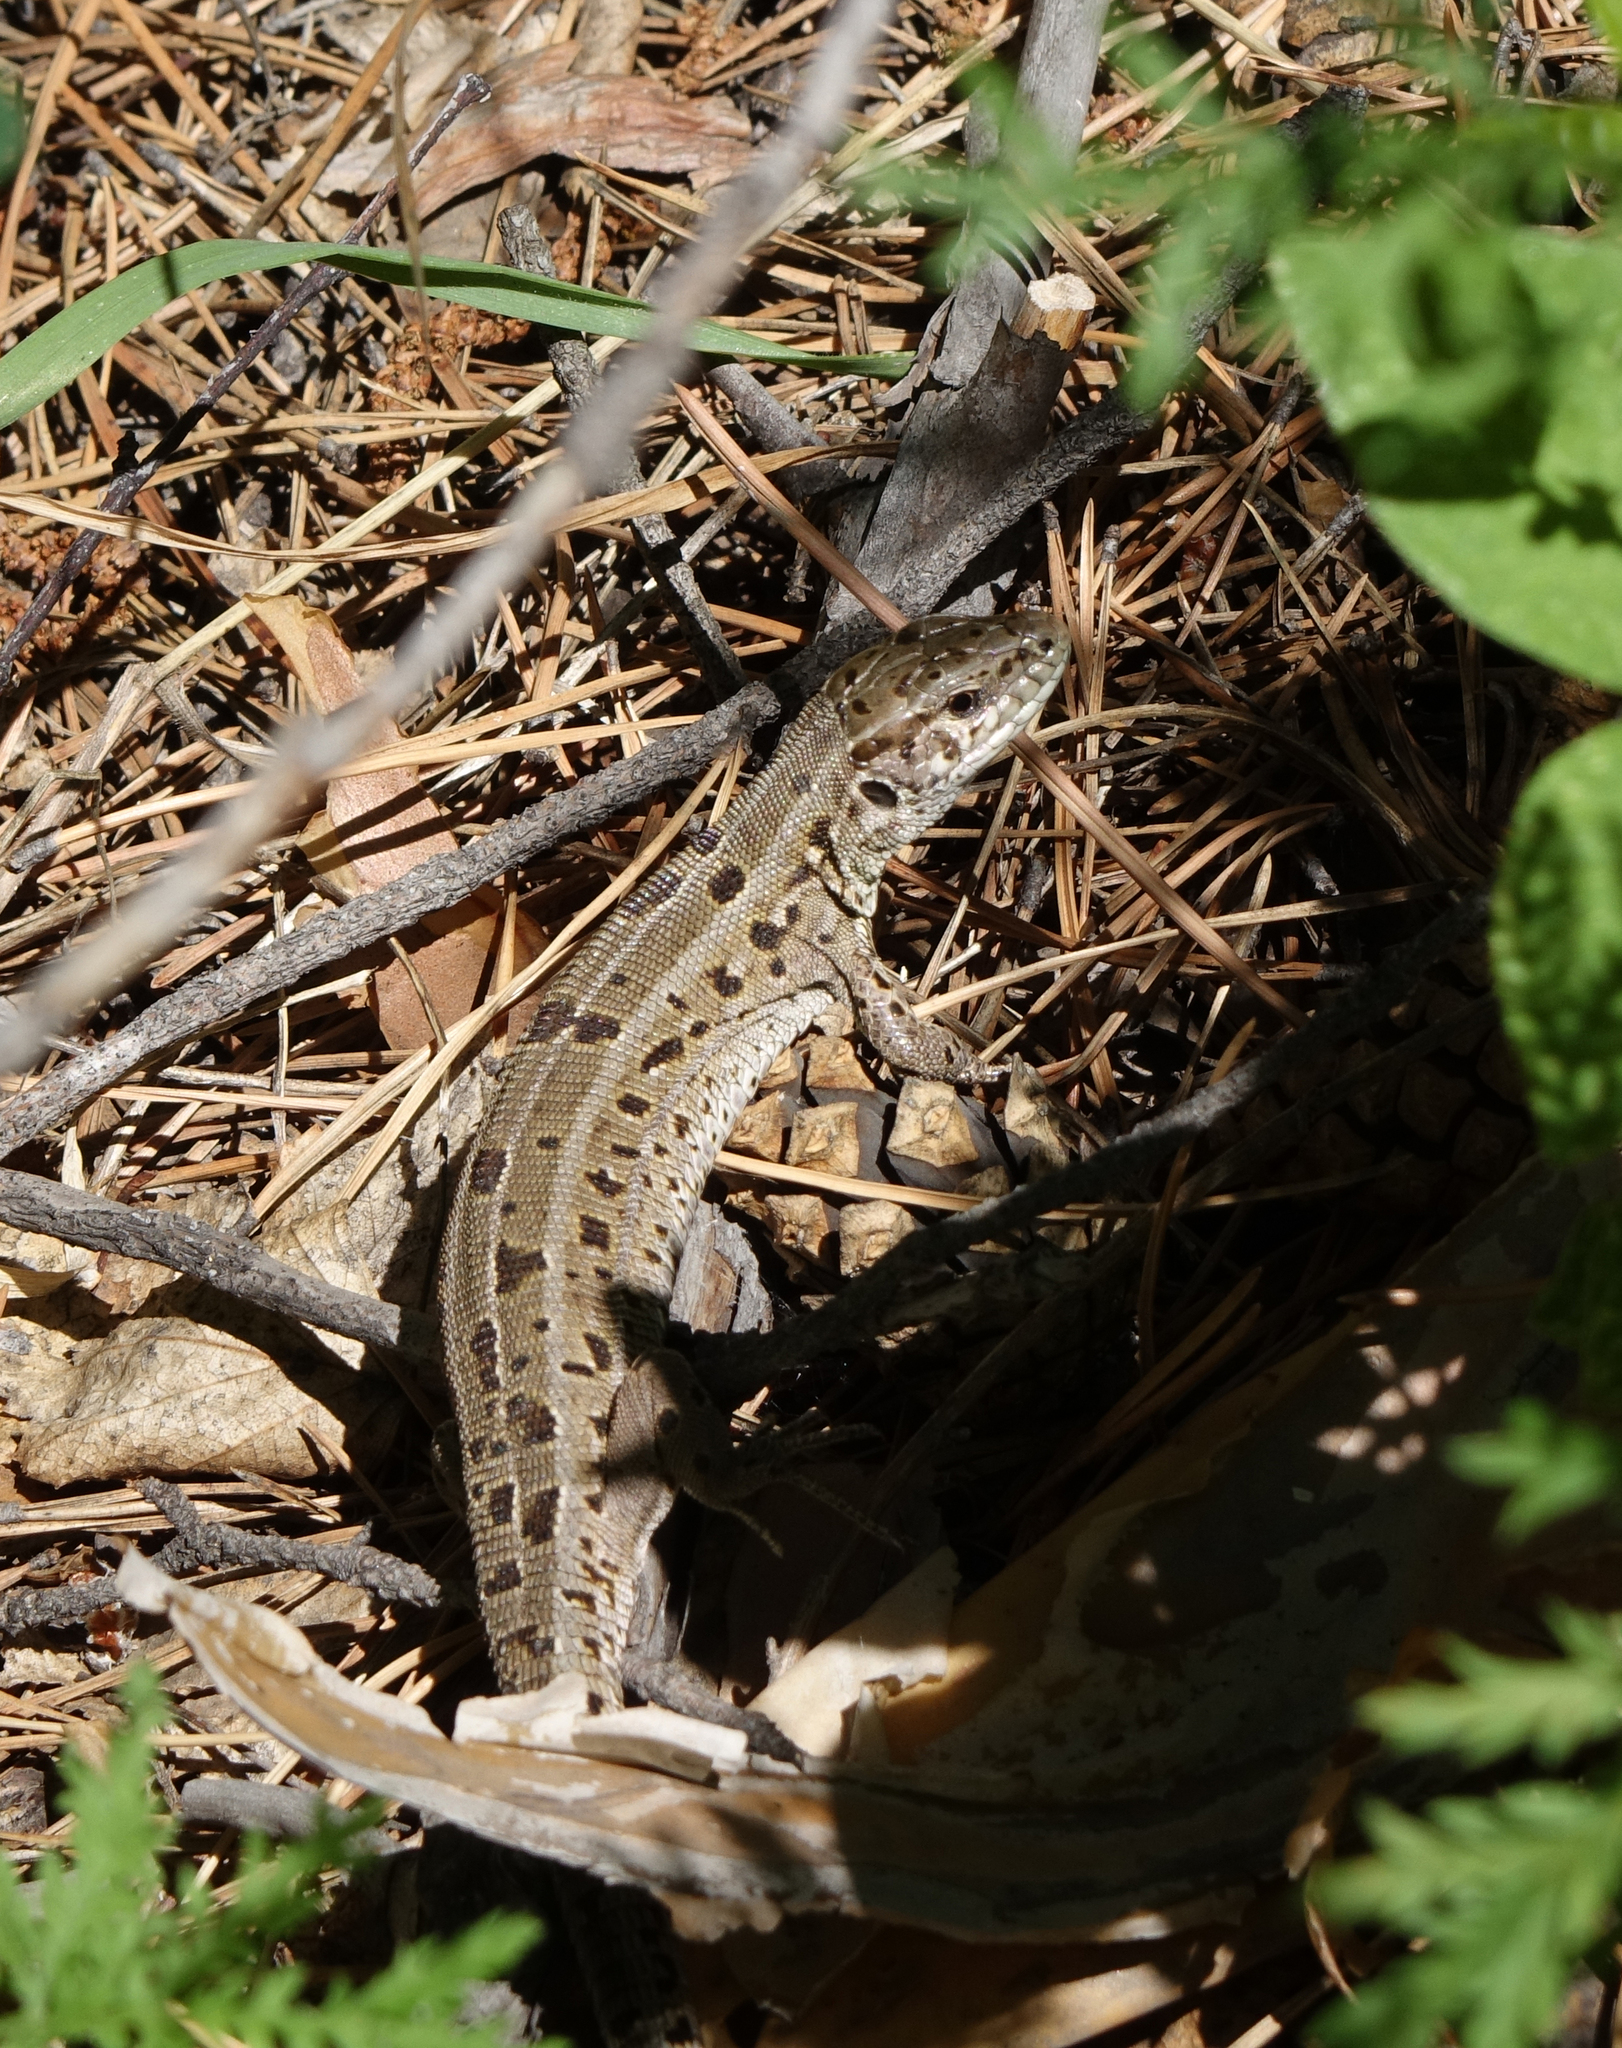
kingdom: Animalia
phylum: Chordata
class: Squamata
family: Lacertidae
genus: Lacerta
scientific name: Lacerta agilis
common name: Sand lizard
